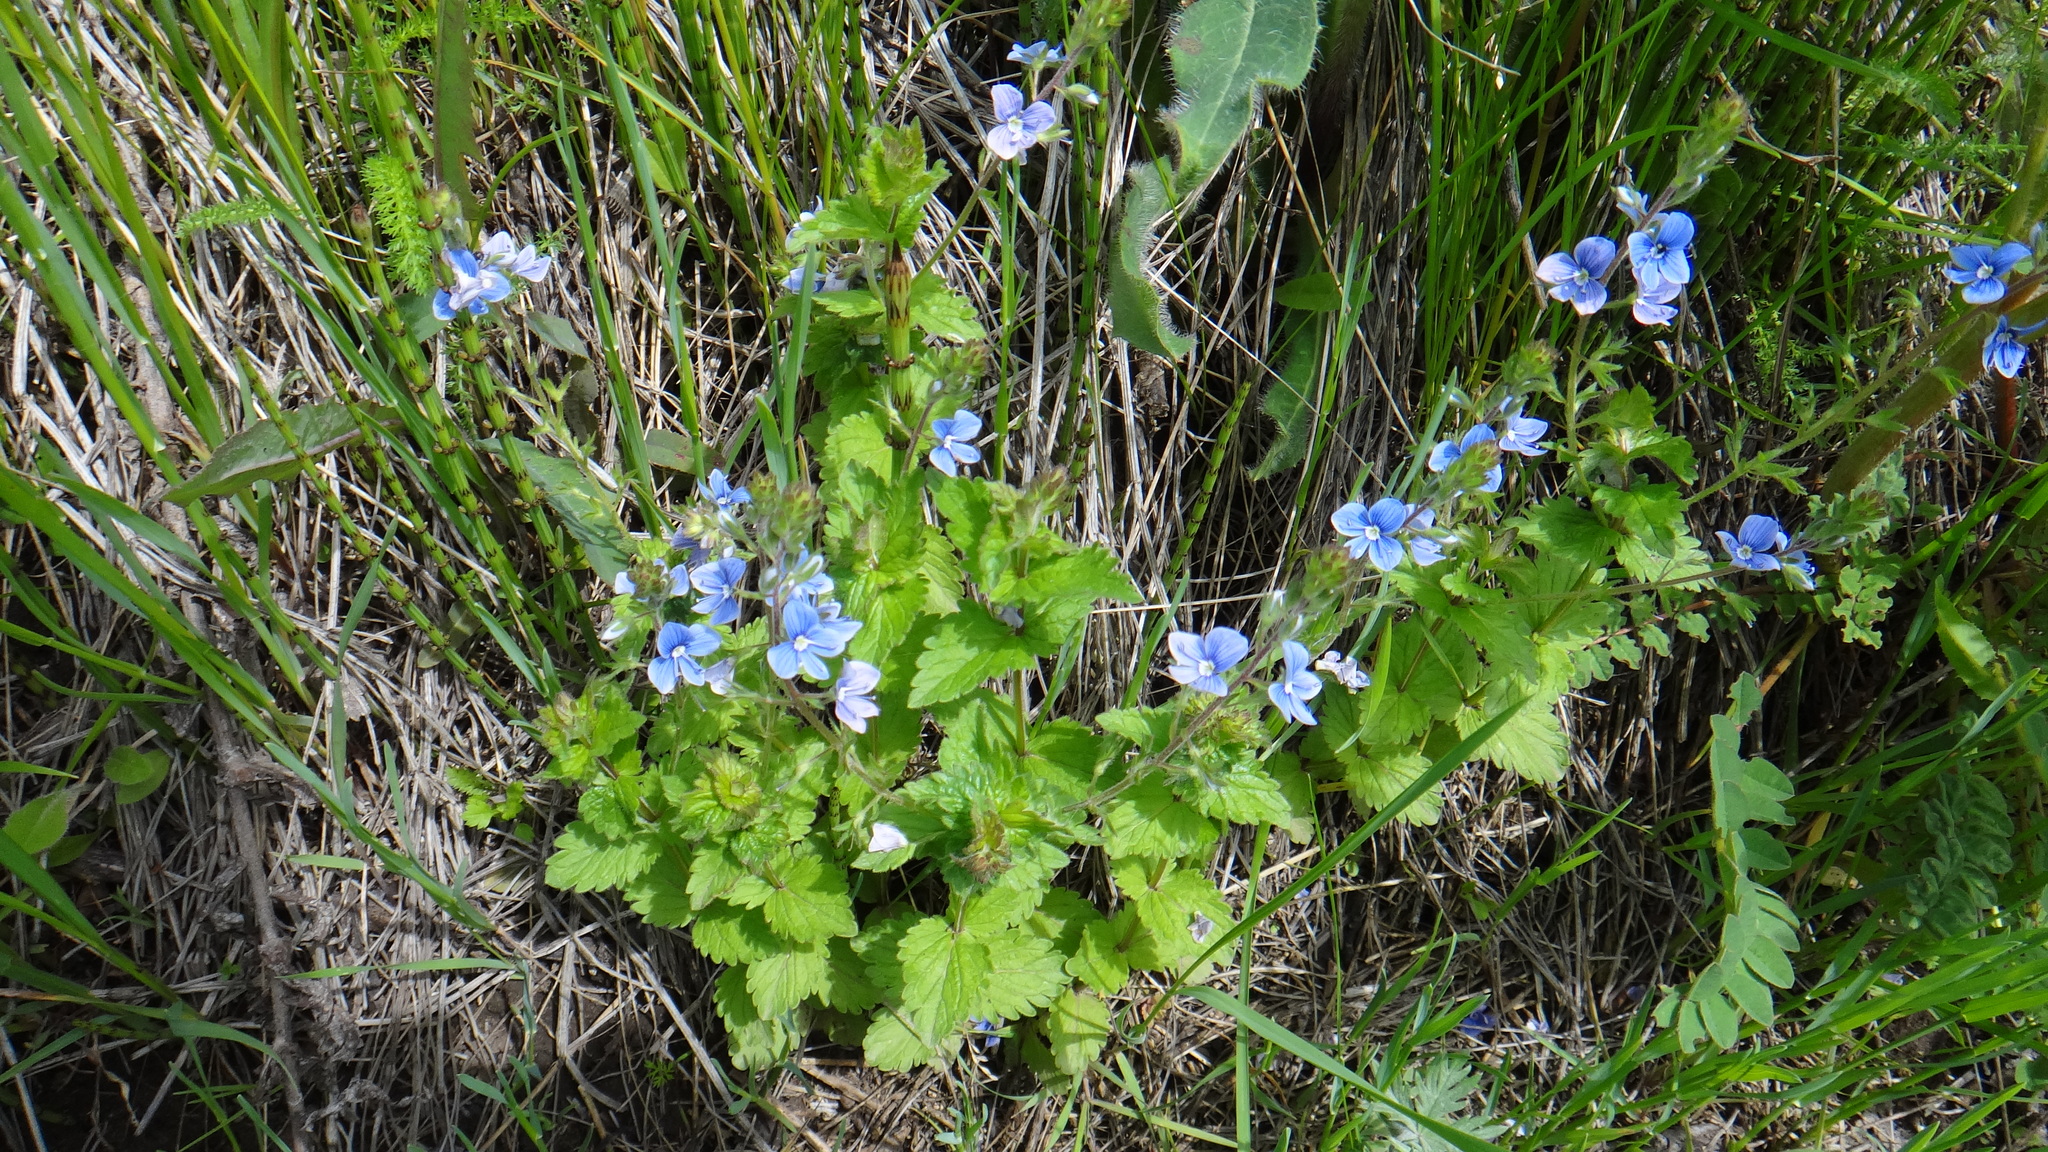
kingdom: Plantae
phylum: Tracheophyta
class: Magnoliopsida
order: Lamiales
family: Plantaginaceae
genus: Veronica
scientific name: Veronica chamaedrys
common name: Germander speedwell
